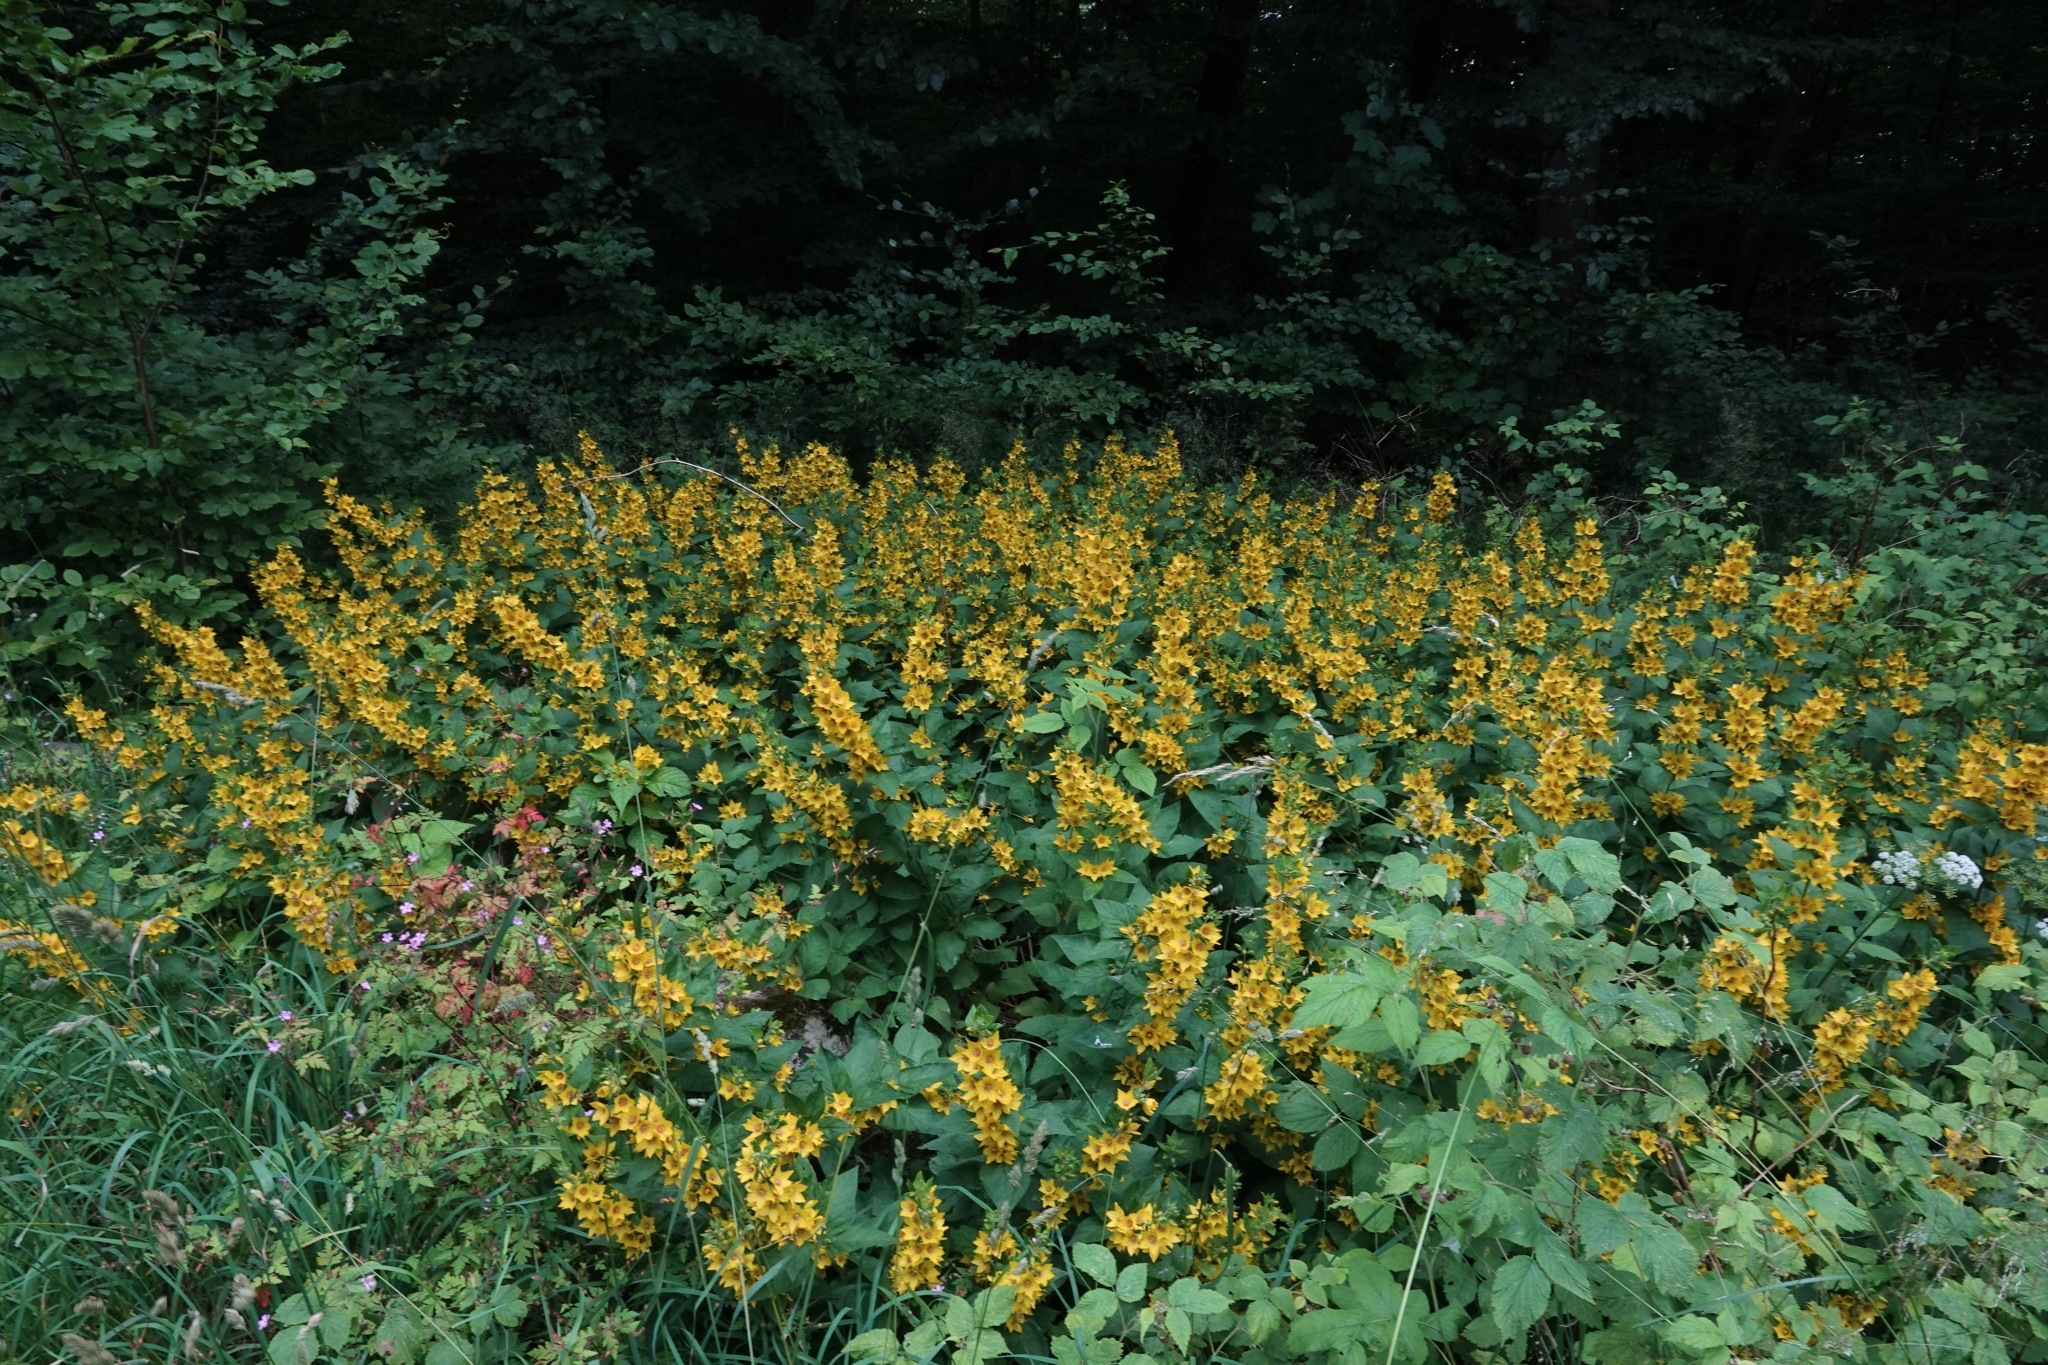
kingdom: Plantae
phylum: Tracheophyta
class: Magnoliopsida
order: Ericales
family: Primulaceae
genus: Lysimachia
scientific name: Lysimachia punctata
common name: Dotted loosestrife
